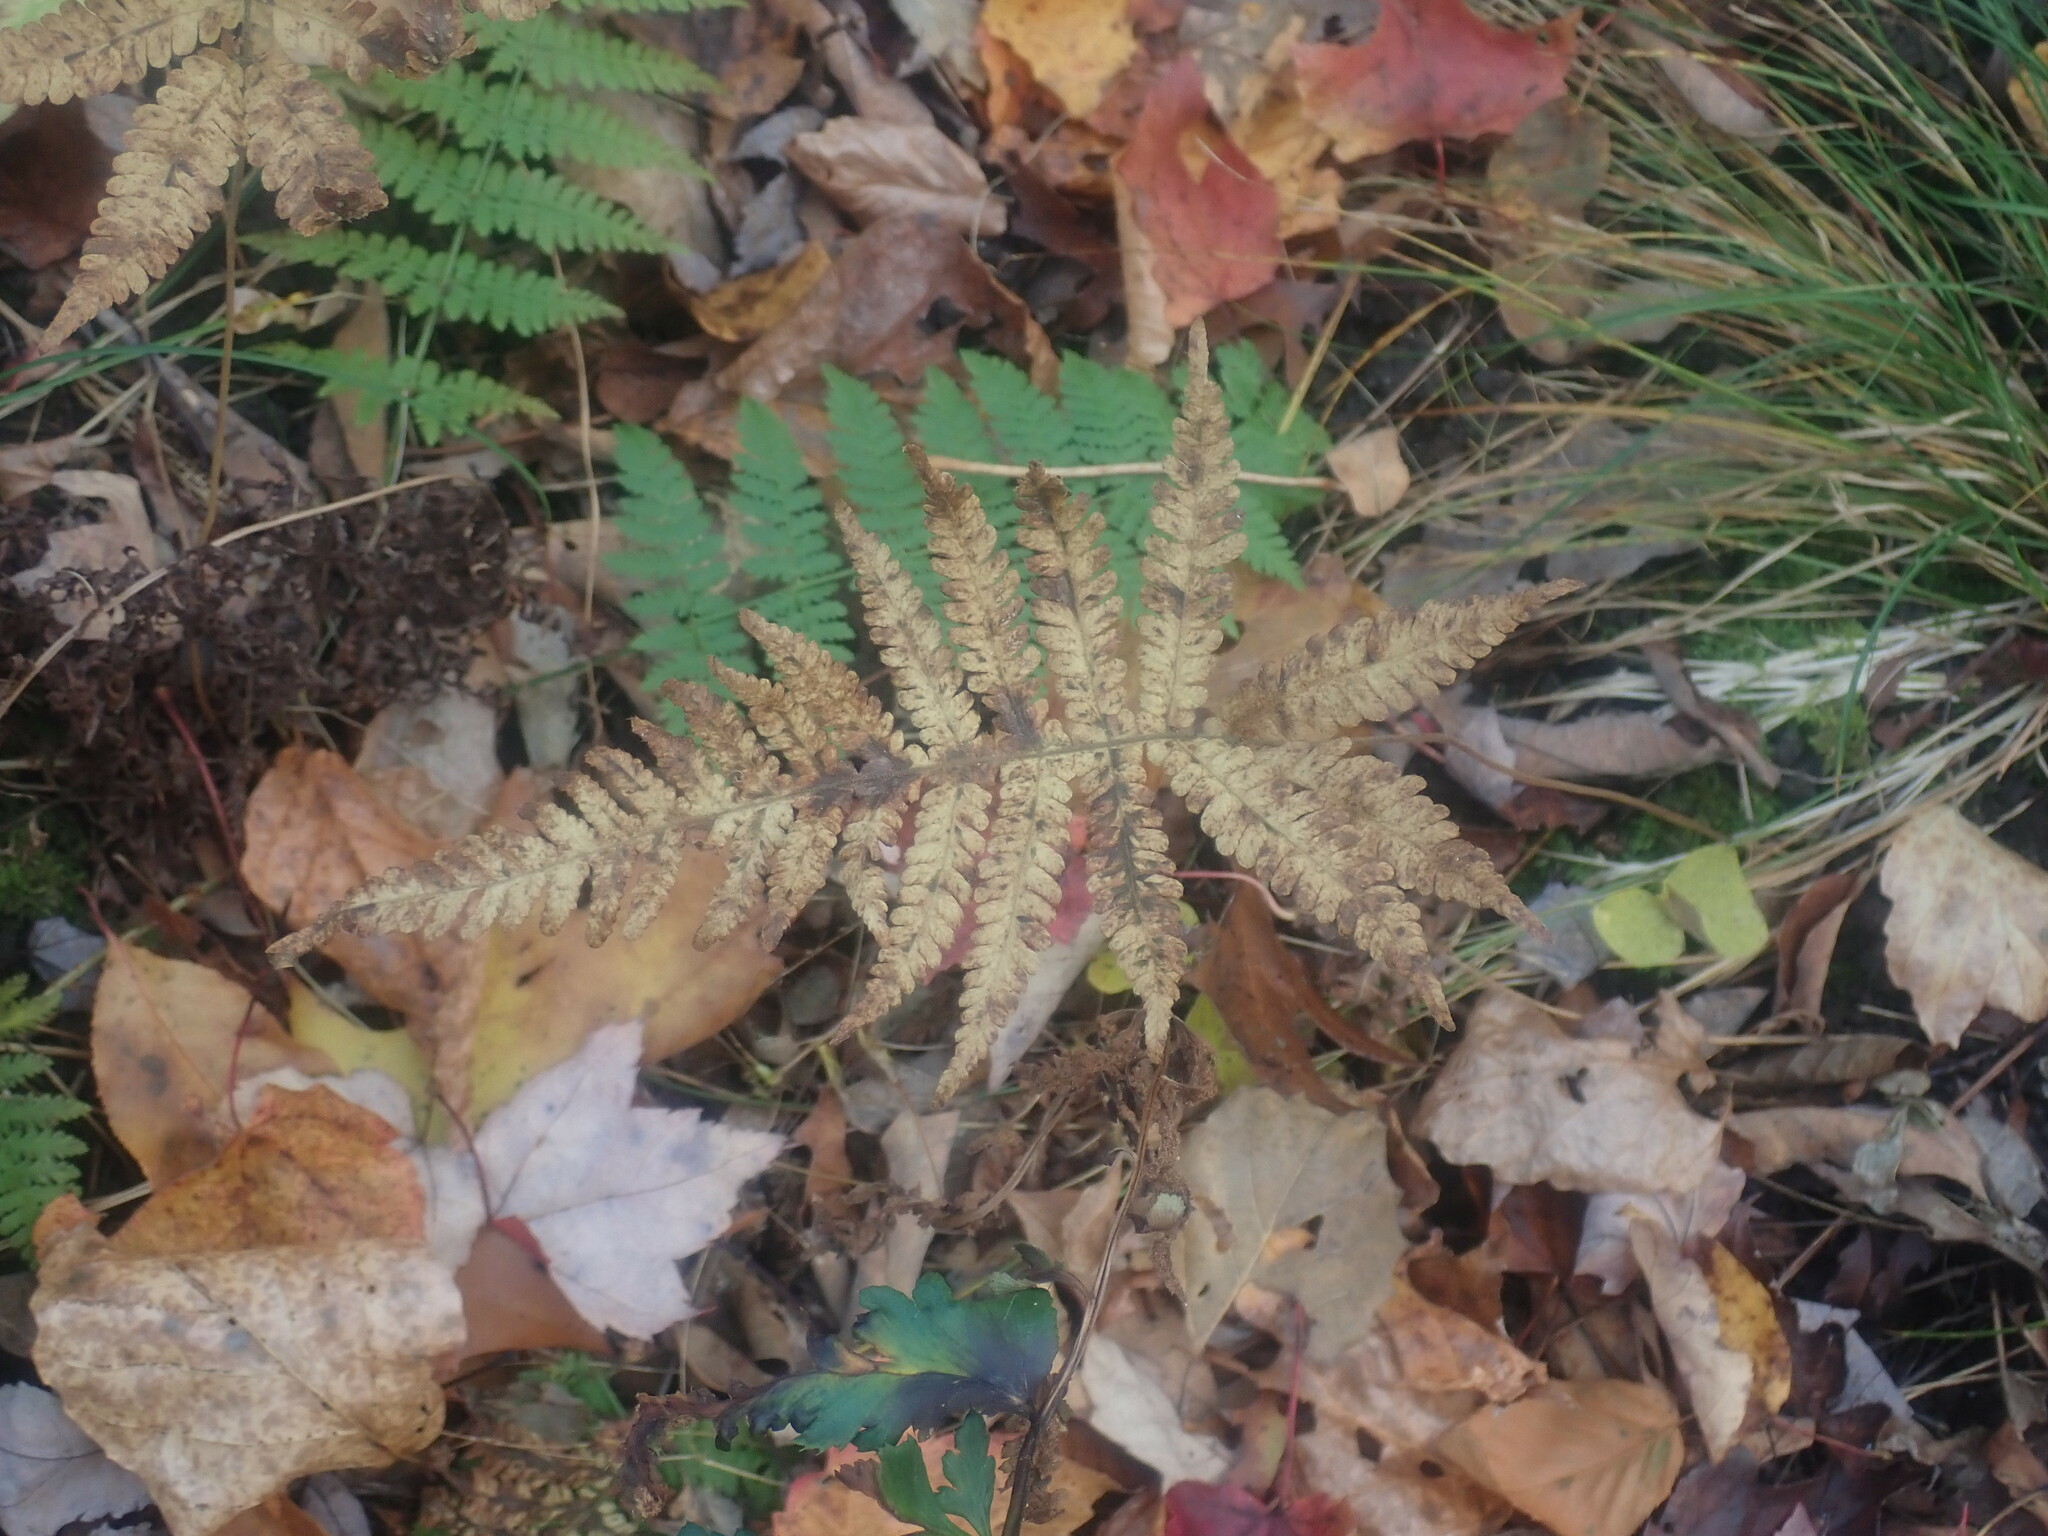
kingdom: Plantae
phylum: Tracheophyta
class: Polypodiopsida
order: Polypodiales
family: Thelypteridaceae
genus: Phegopteris
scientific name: Phegopteris connectilis
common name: Beech fern
